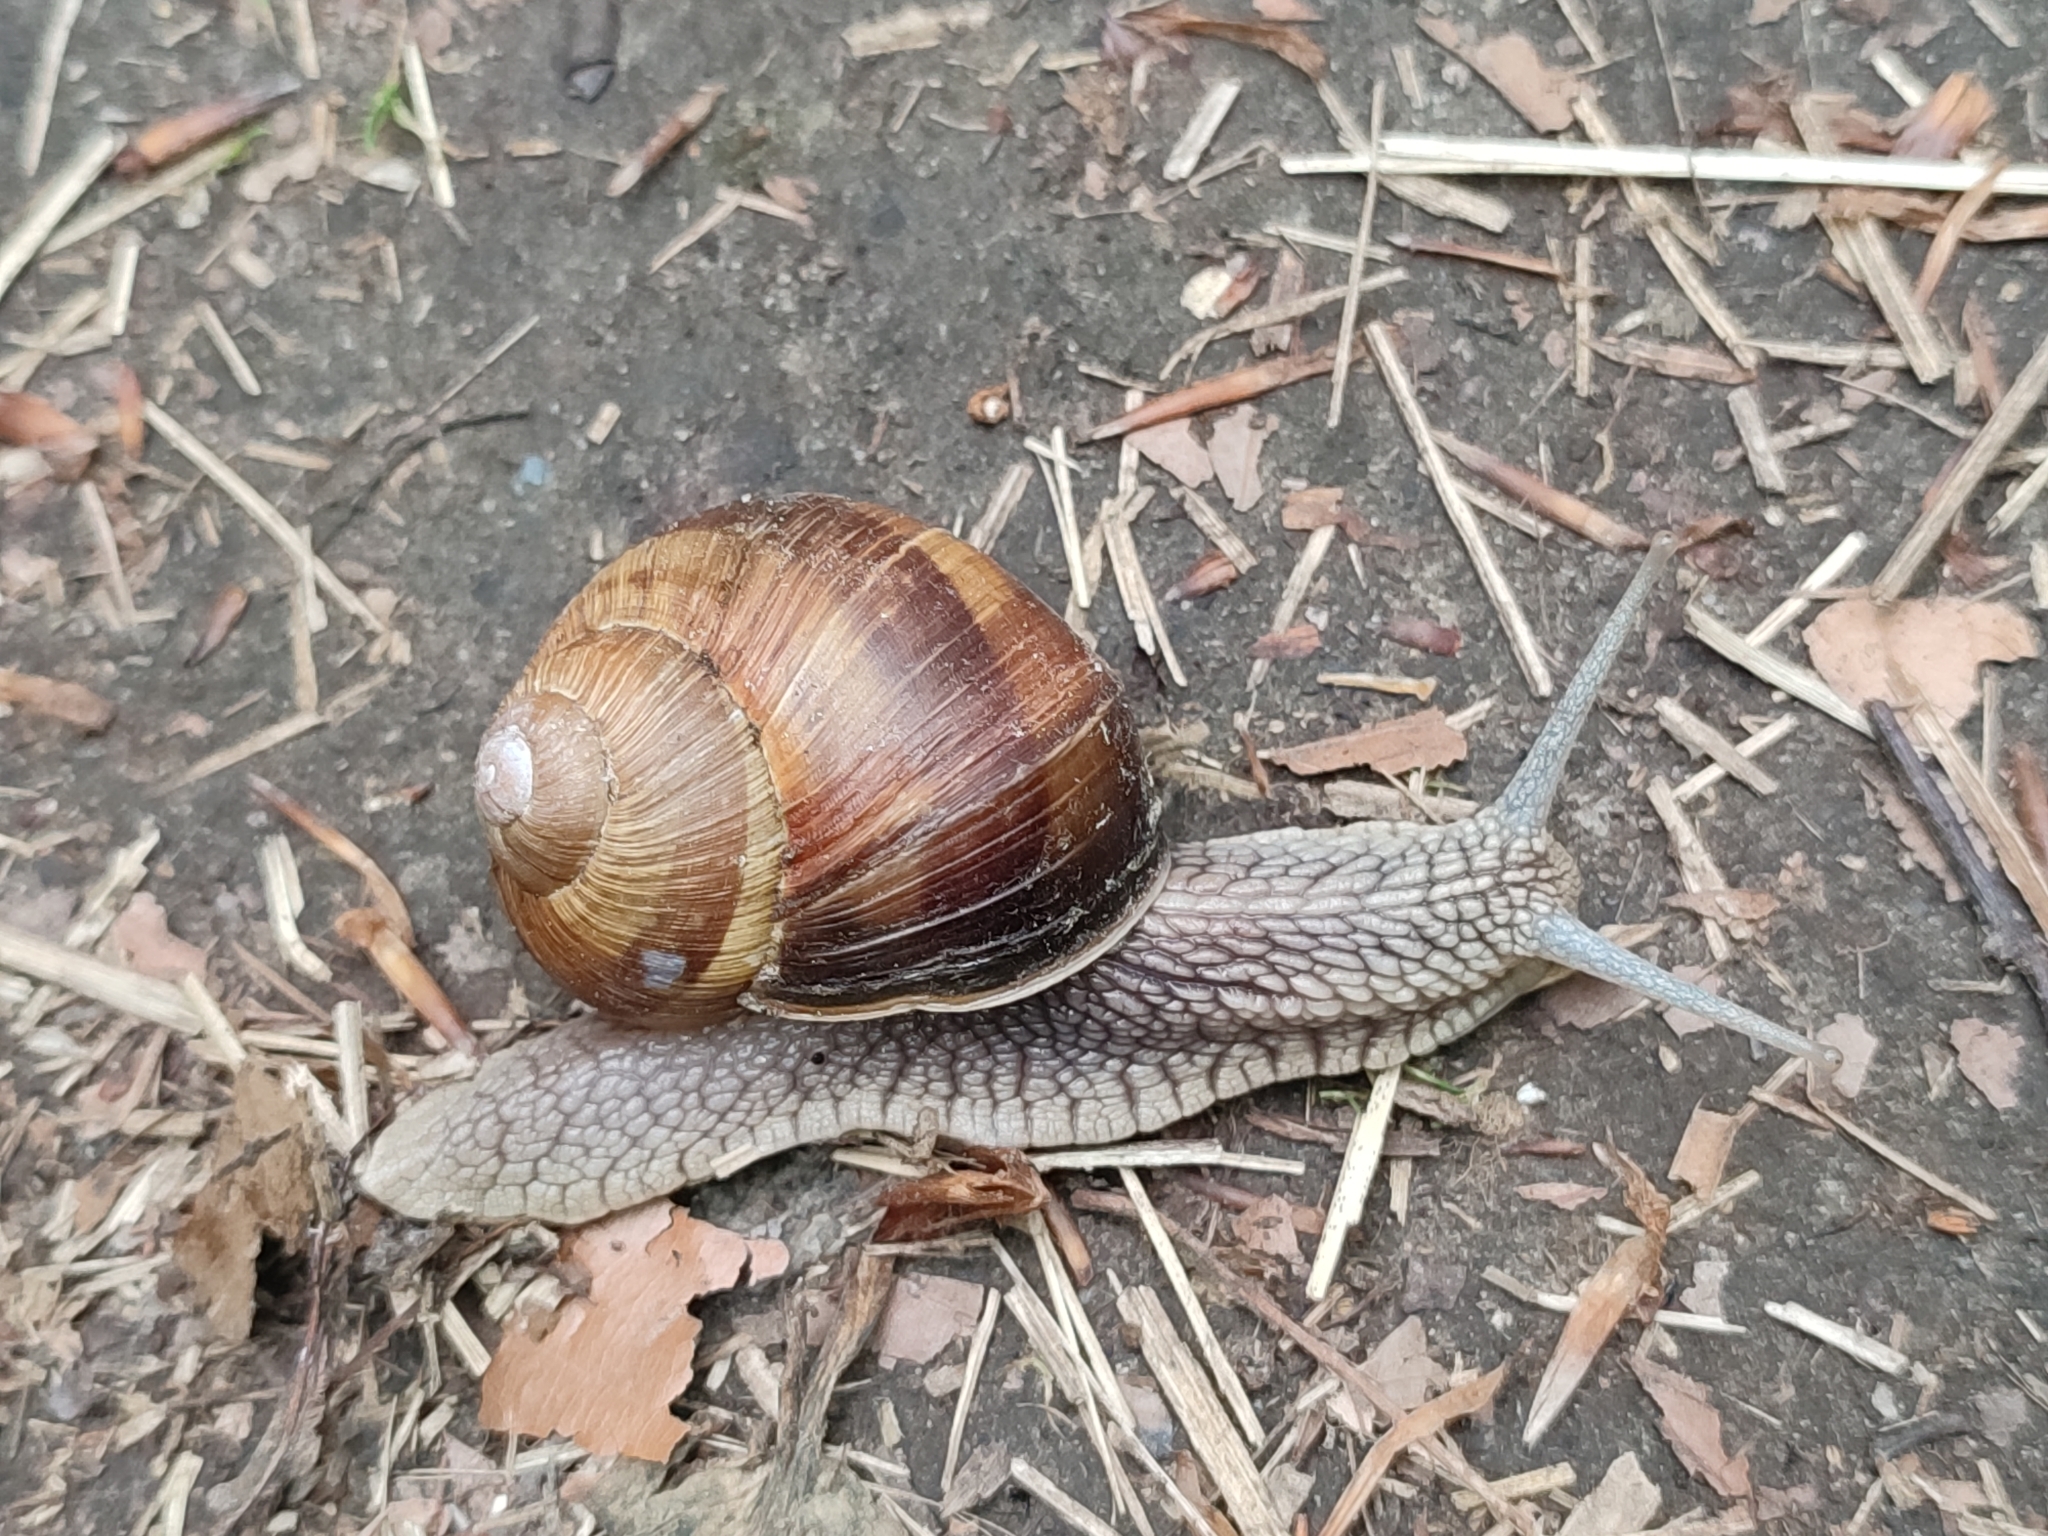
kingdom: Animalia
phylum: Mollusca
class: Gastropoda
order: Stylommatophora
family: Helicidae
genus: Helix
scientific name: Helix pomatia
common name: Roman snail
